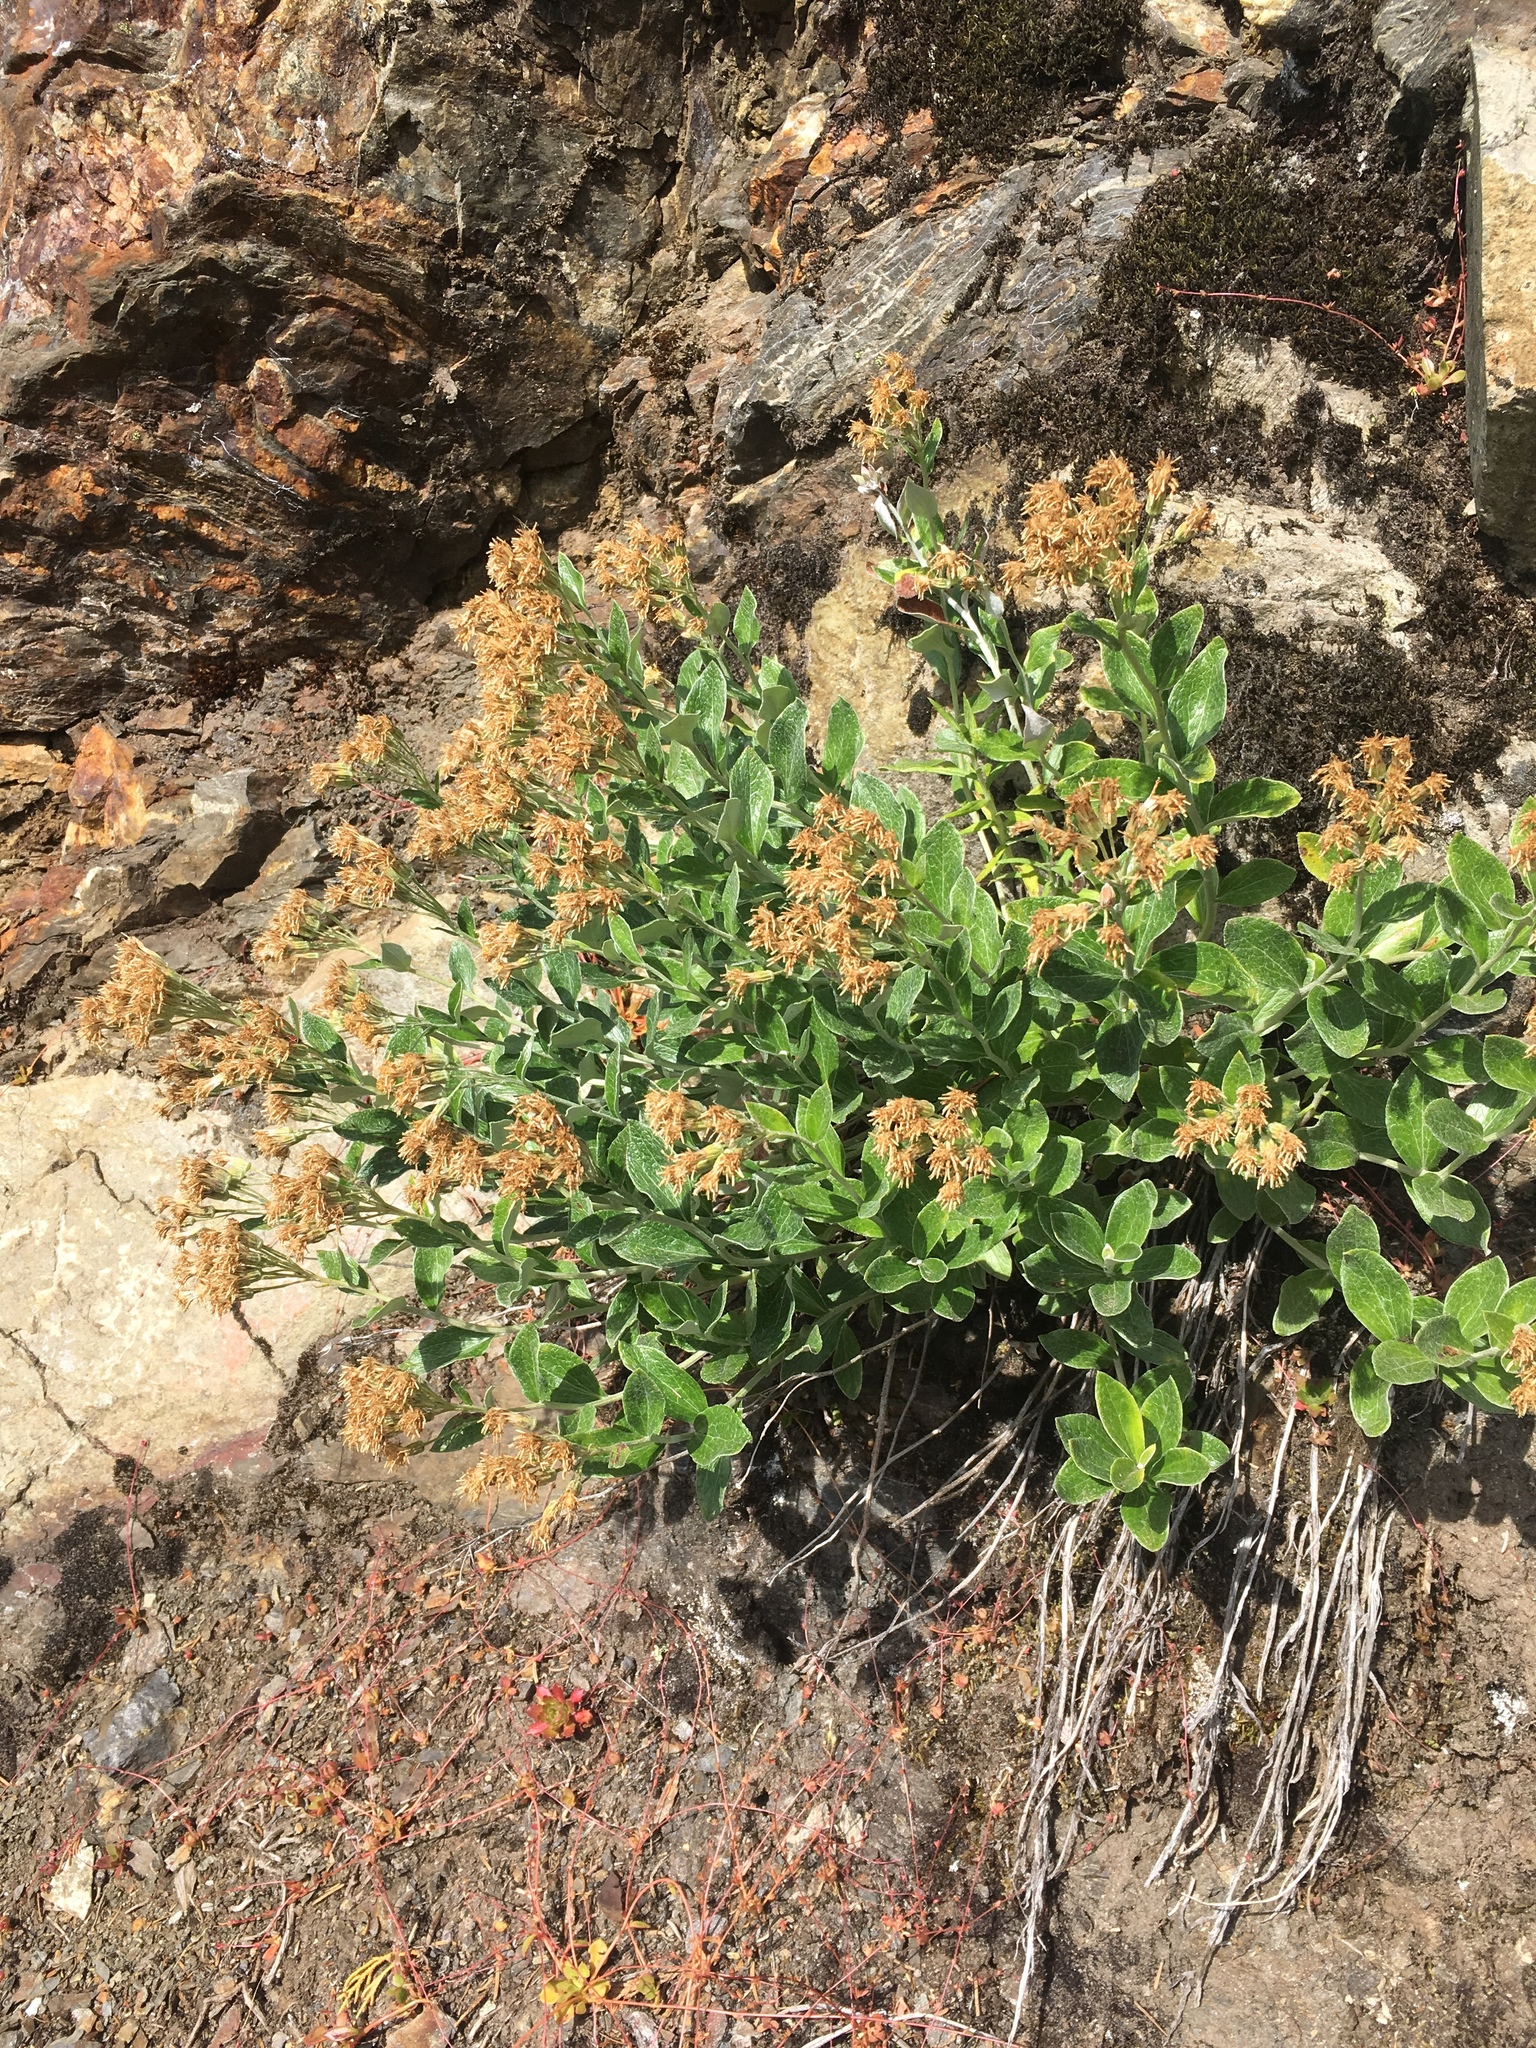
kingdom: Plantae
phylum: Tracheophyta
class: Magnoliopsida
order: Asterales
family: Asteraceae
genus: Luina
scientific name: Luina hypoleuca
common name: Little-leaved luina
